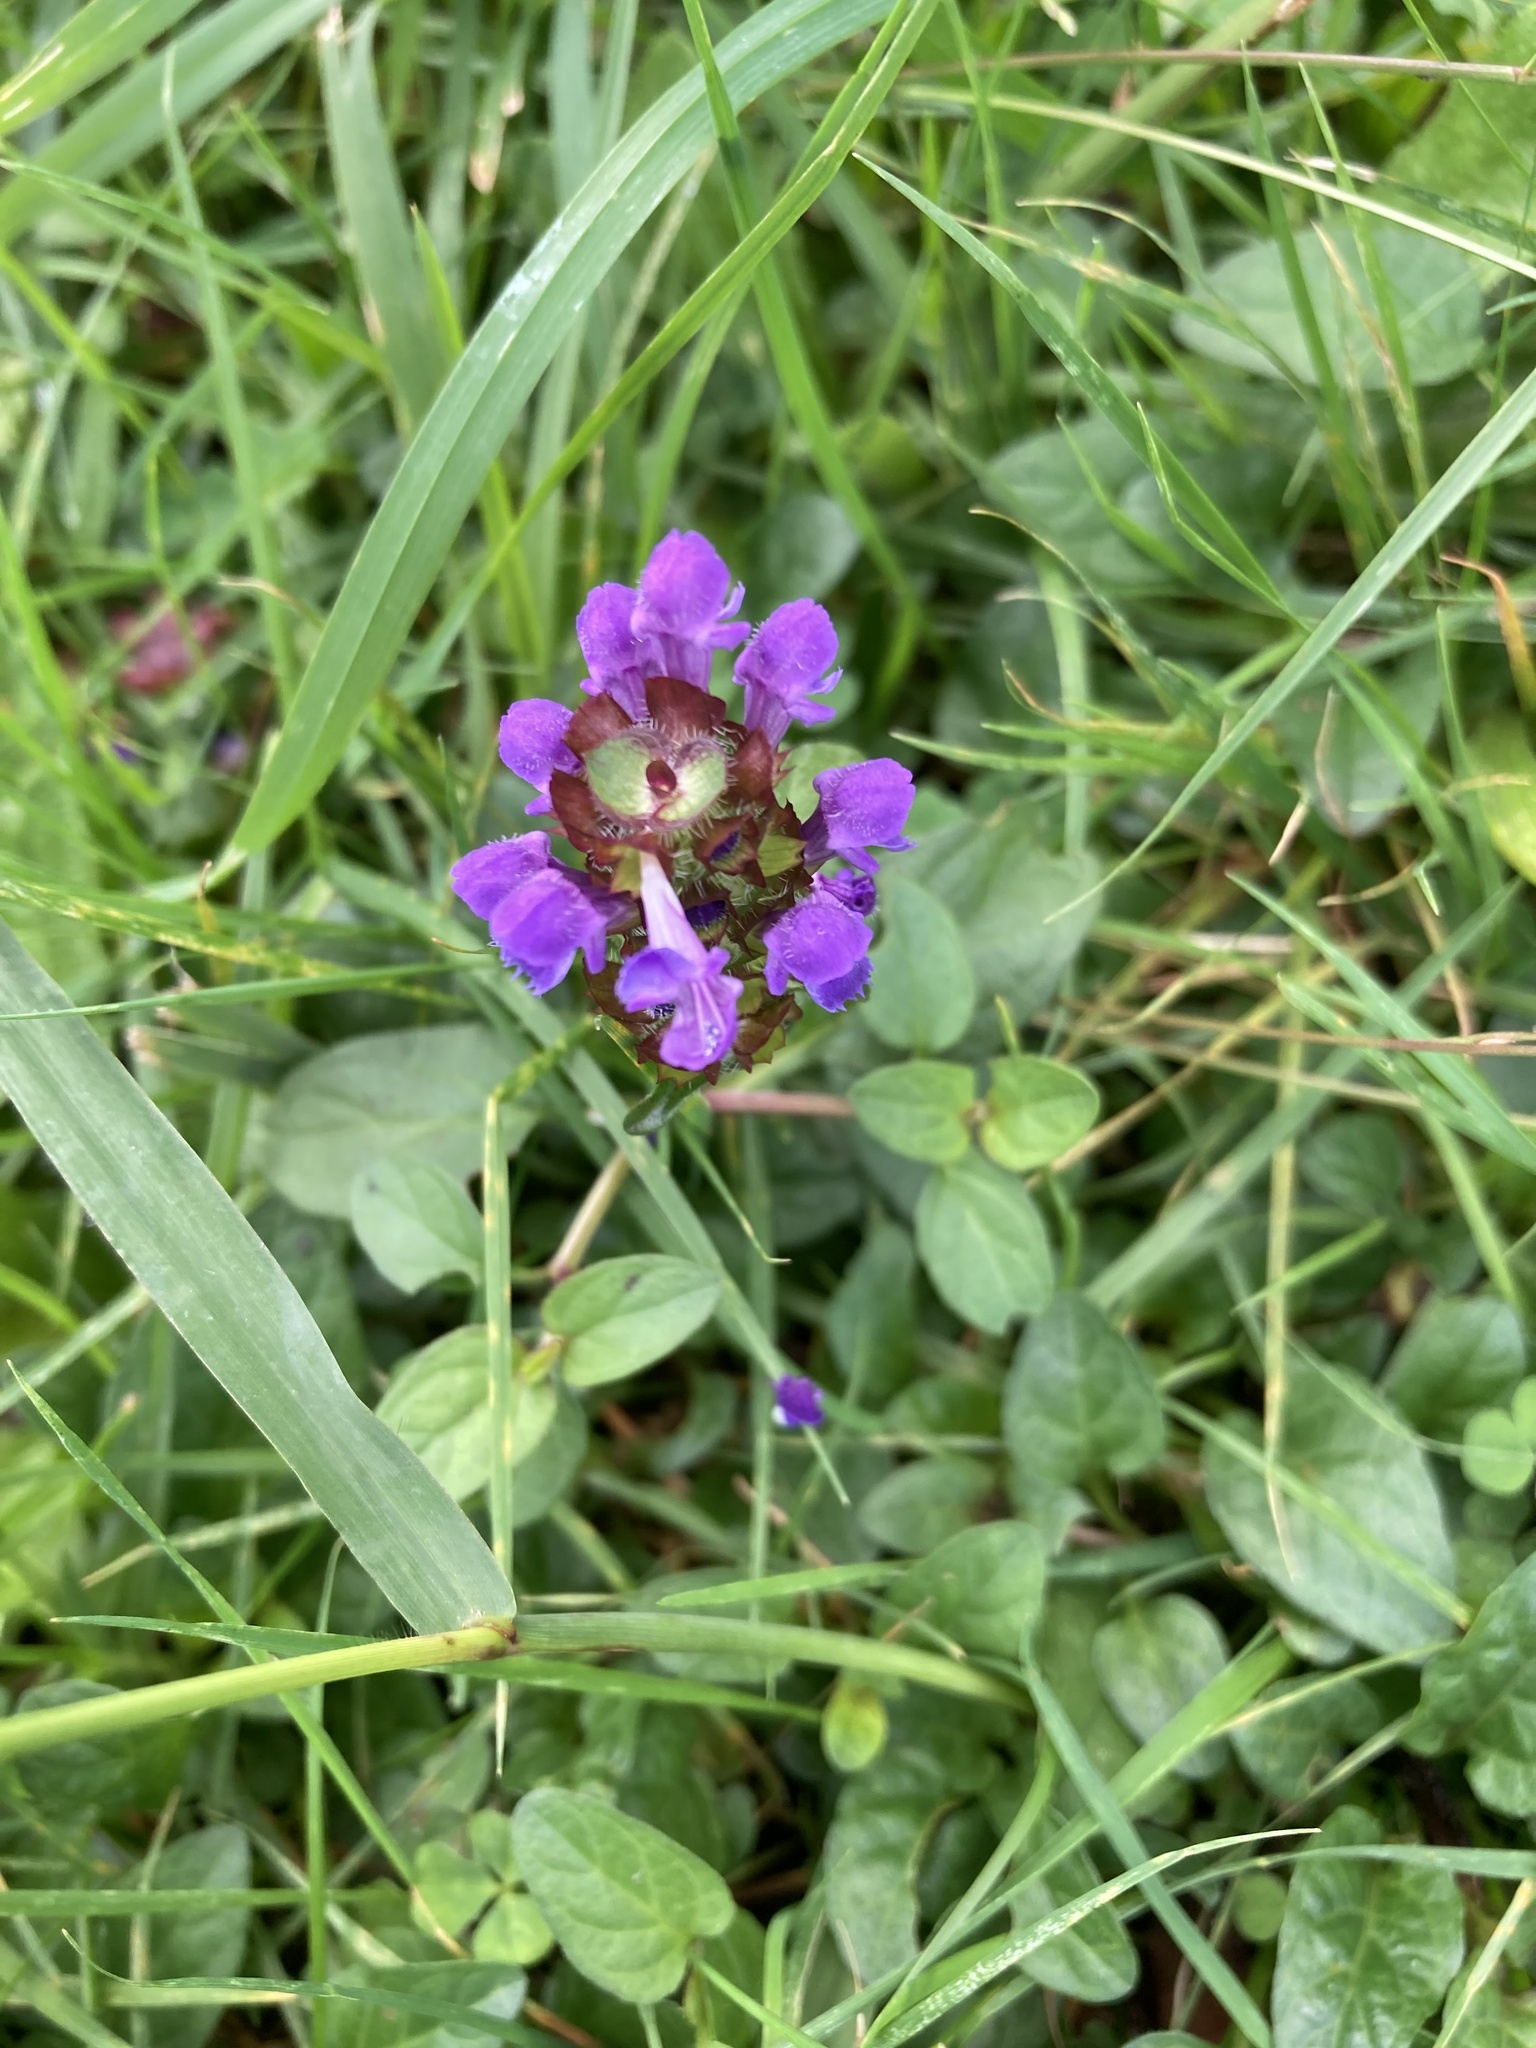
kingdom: Plantae
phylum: Tracheophyta
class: Magnoliopsida
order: Lamiales
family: Lamiaceae
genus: Prunella
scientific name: Prunella vulgaris
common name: Heal-all
